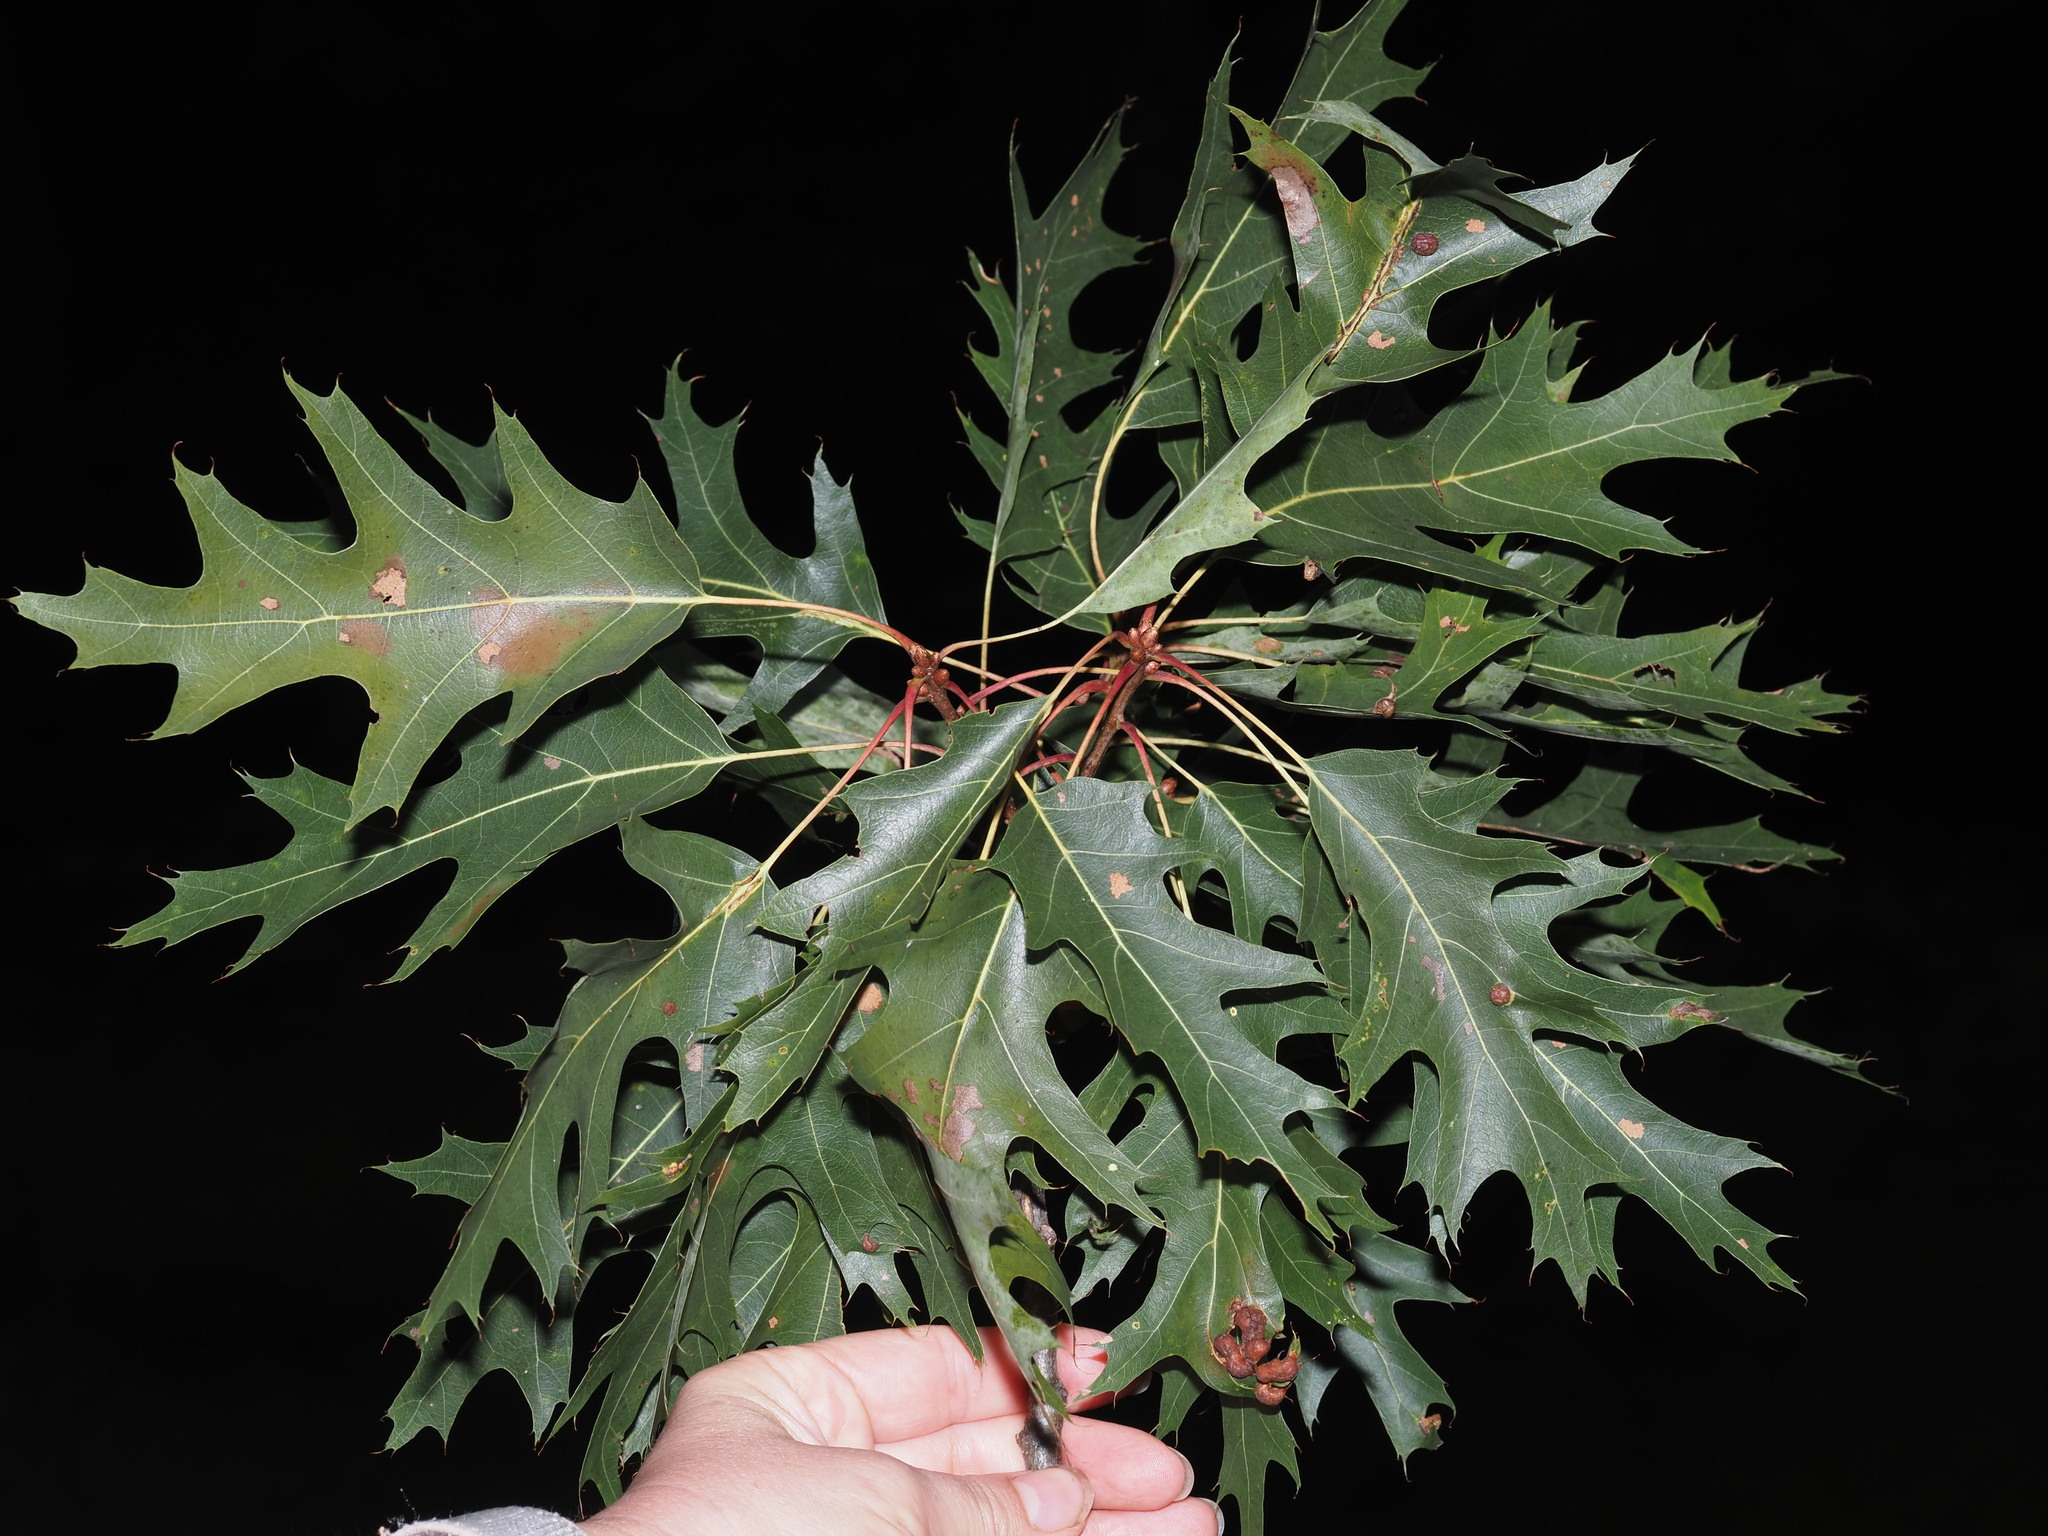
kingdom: Plantae
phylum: Tracheophyta
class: Magnoliopsida
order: Fagales
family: Fagaceae
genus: Quercus
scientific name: Quercus rubra
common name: Red oak
